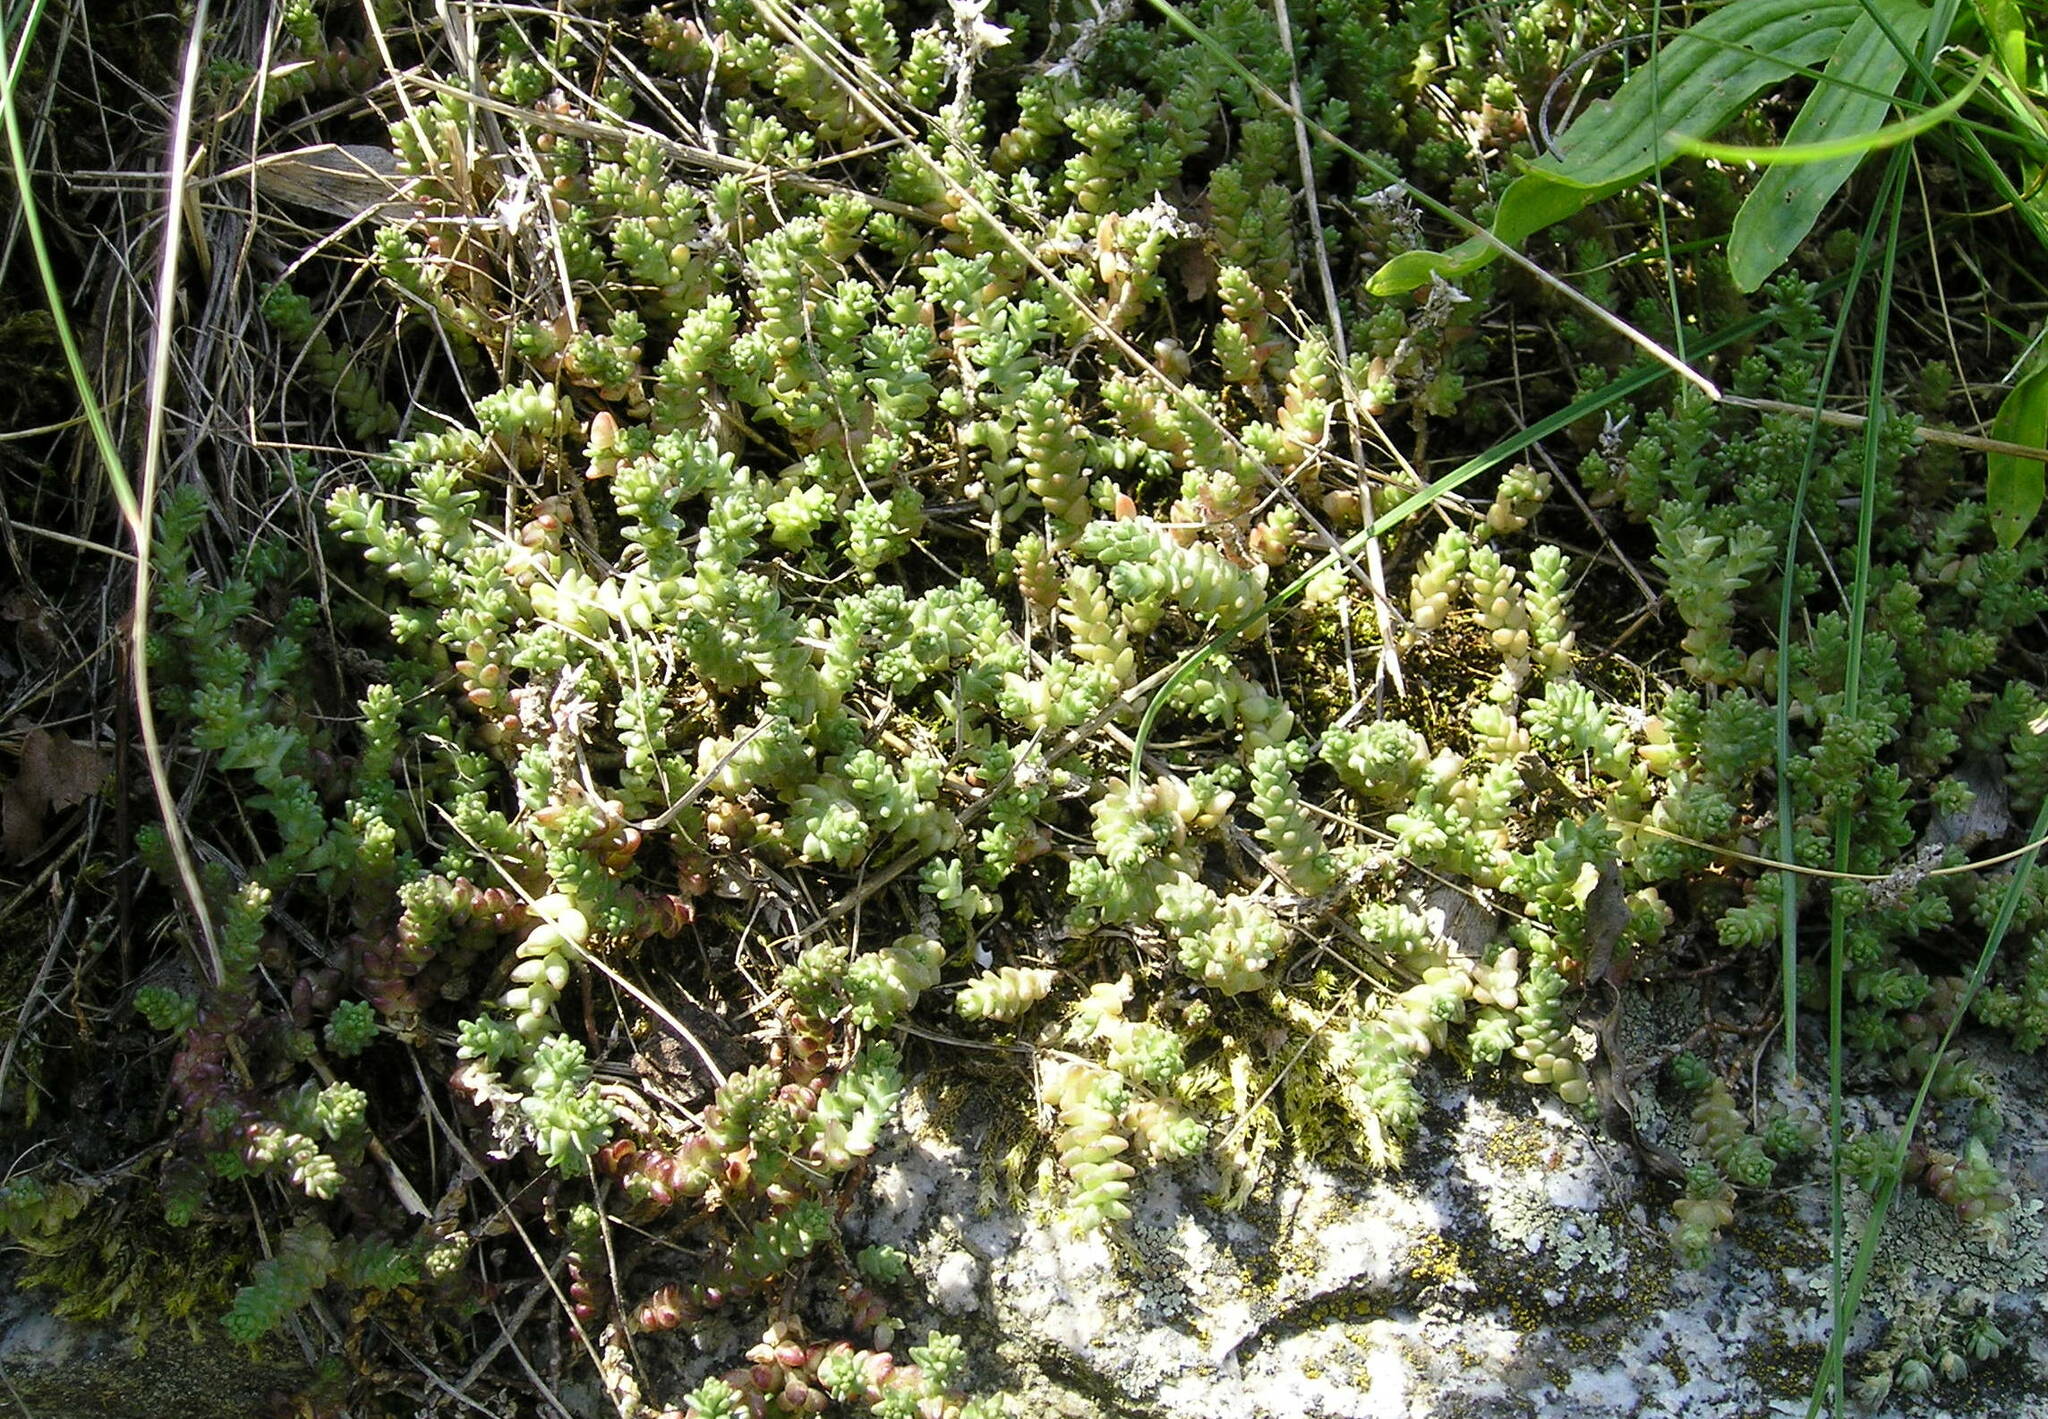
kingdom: Plantae
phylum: Tracheophyta
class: Magnoliopsida
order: Saxifragales
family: Crassulaceae
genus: Sedum
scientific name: Sedum acre
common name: Biting stonecrop
